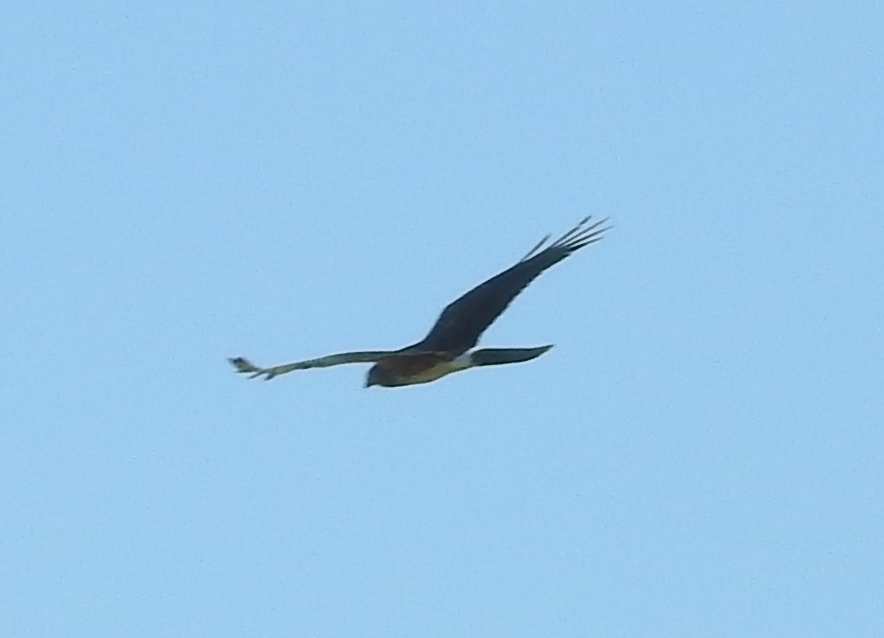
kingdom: Animalia
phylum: Chordata
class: Aves
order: Accipitriformes
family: Accipitridae
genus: Circus
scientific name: Circus cyaneus
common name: Hen harrier
